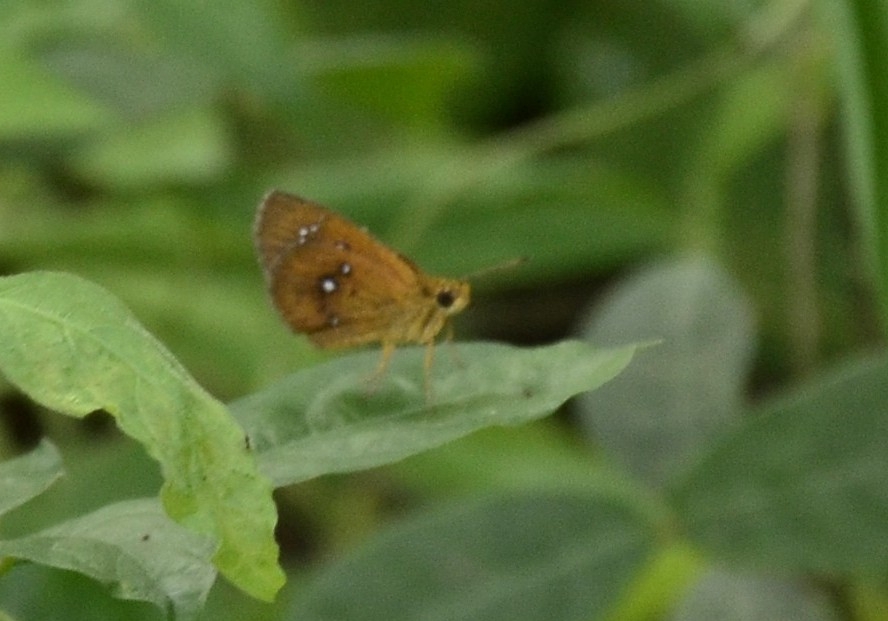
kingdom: Animalia
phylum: Arthropoda
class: Insecta
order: Lepidoptera
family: Hesperiidae
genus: Iambrix
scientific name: Iambrix salsala
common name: Chestnut bob
